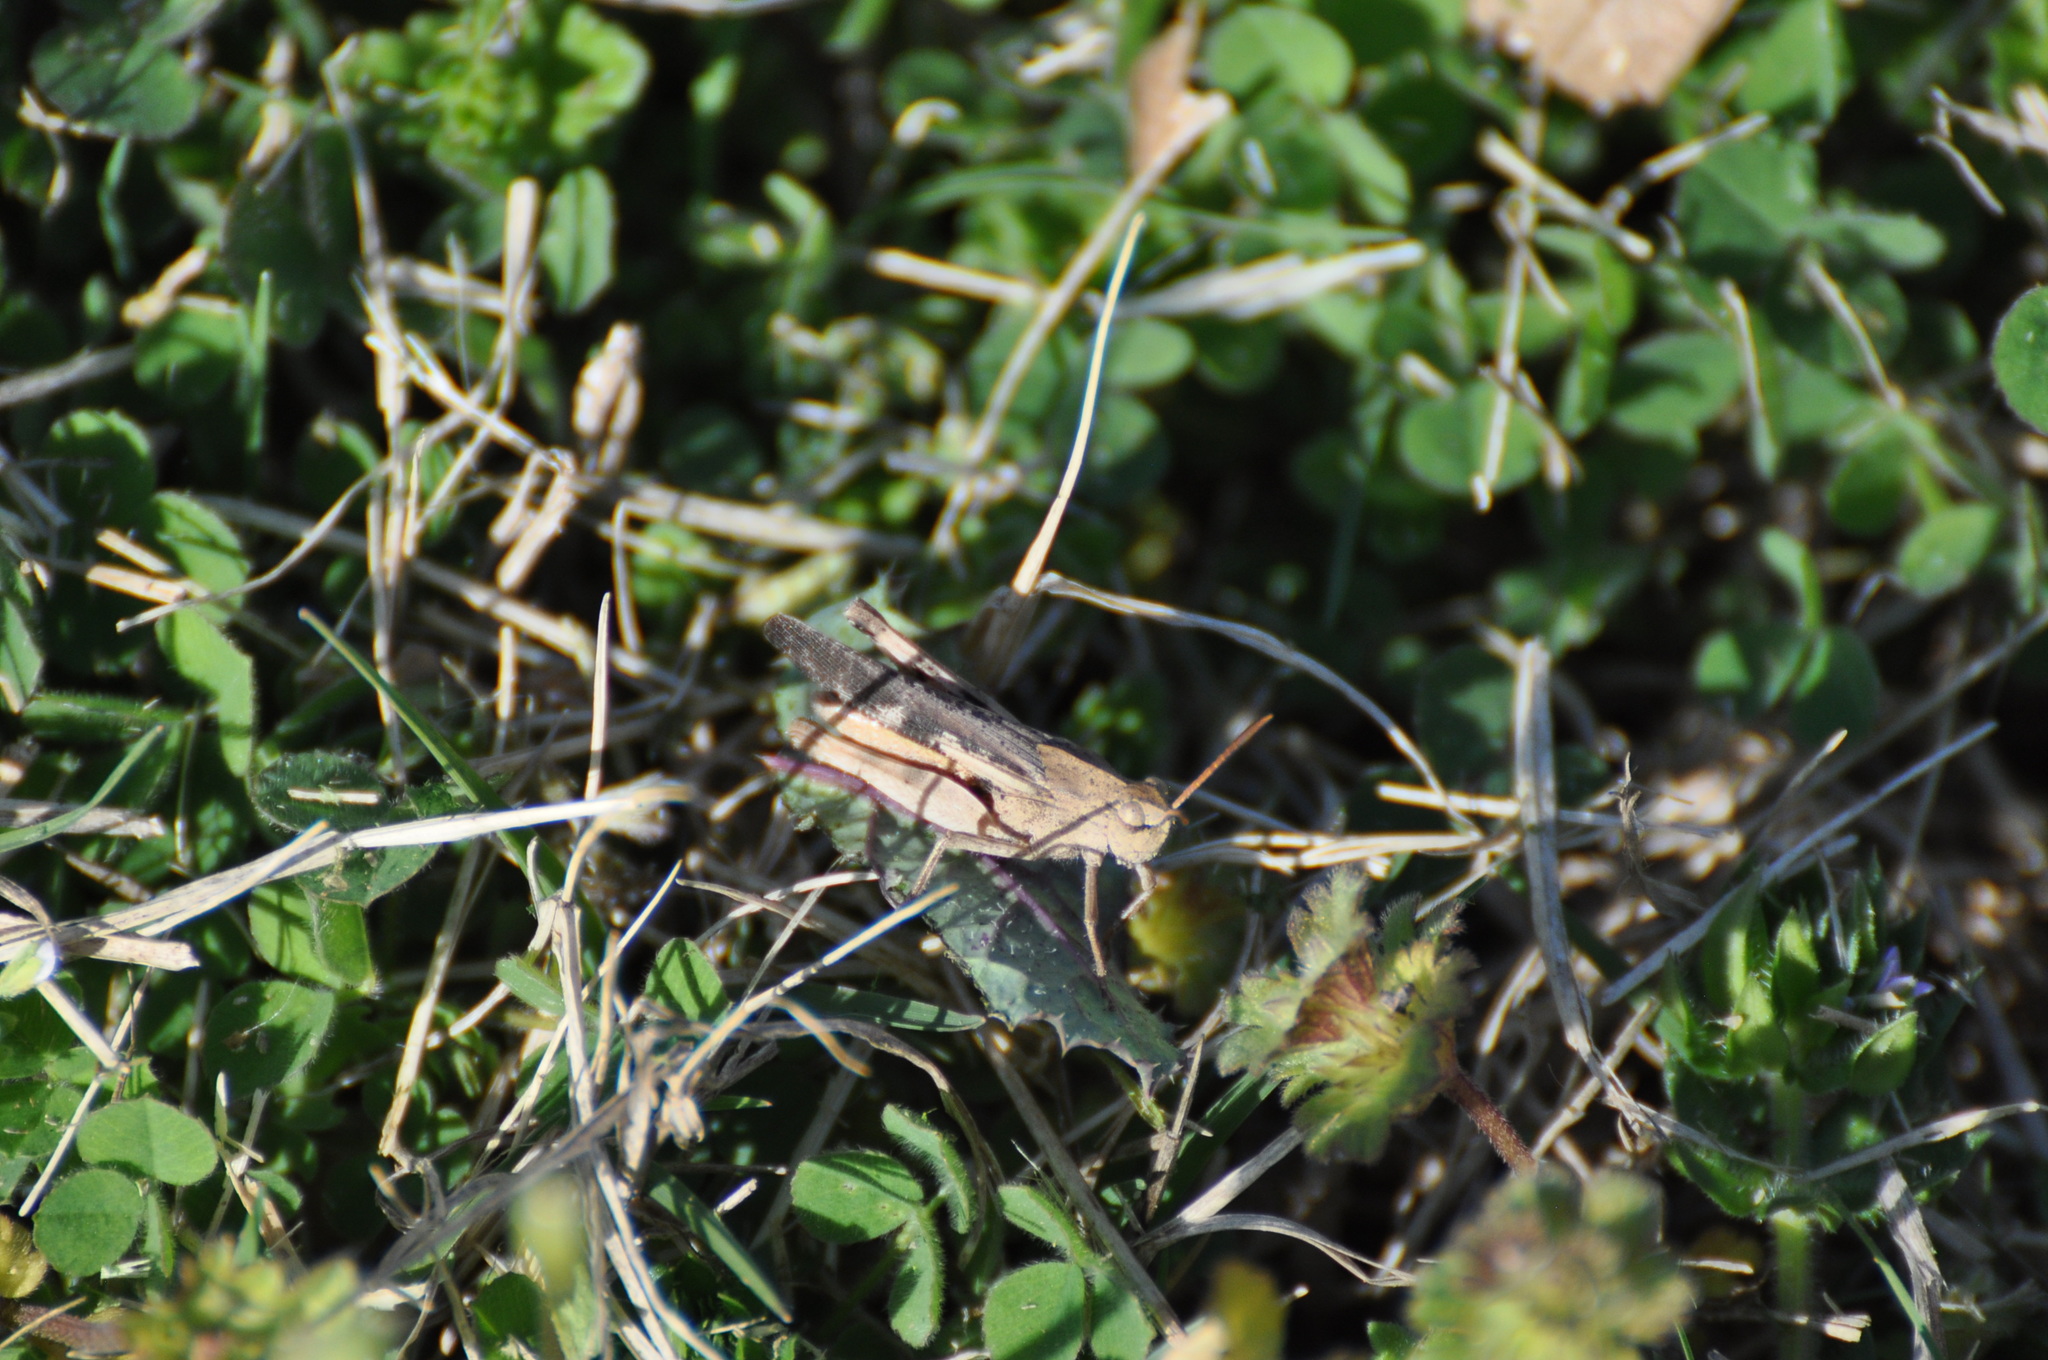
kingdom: Animalia
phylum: Arthropoda
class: Insecta
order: Orthoptera
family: Acrididae
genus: Chortophaga
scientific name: Chortophaga viridifasciata
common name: Green-striped grasshopper
